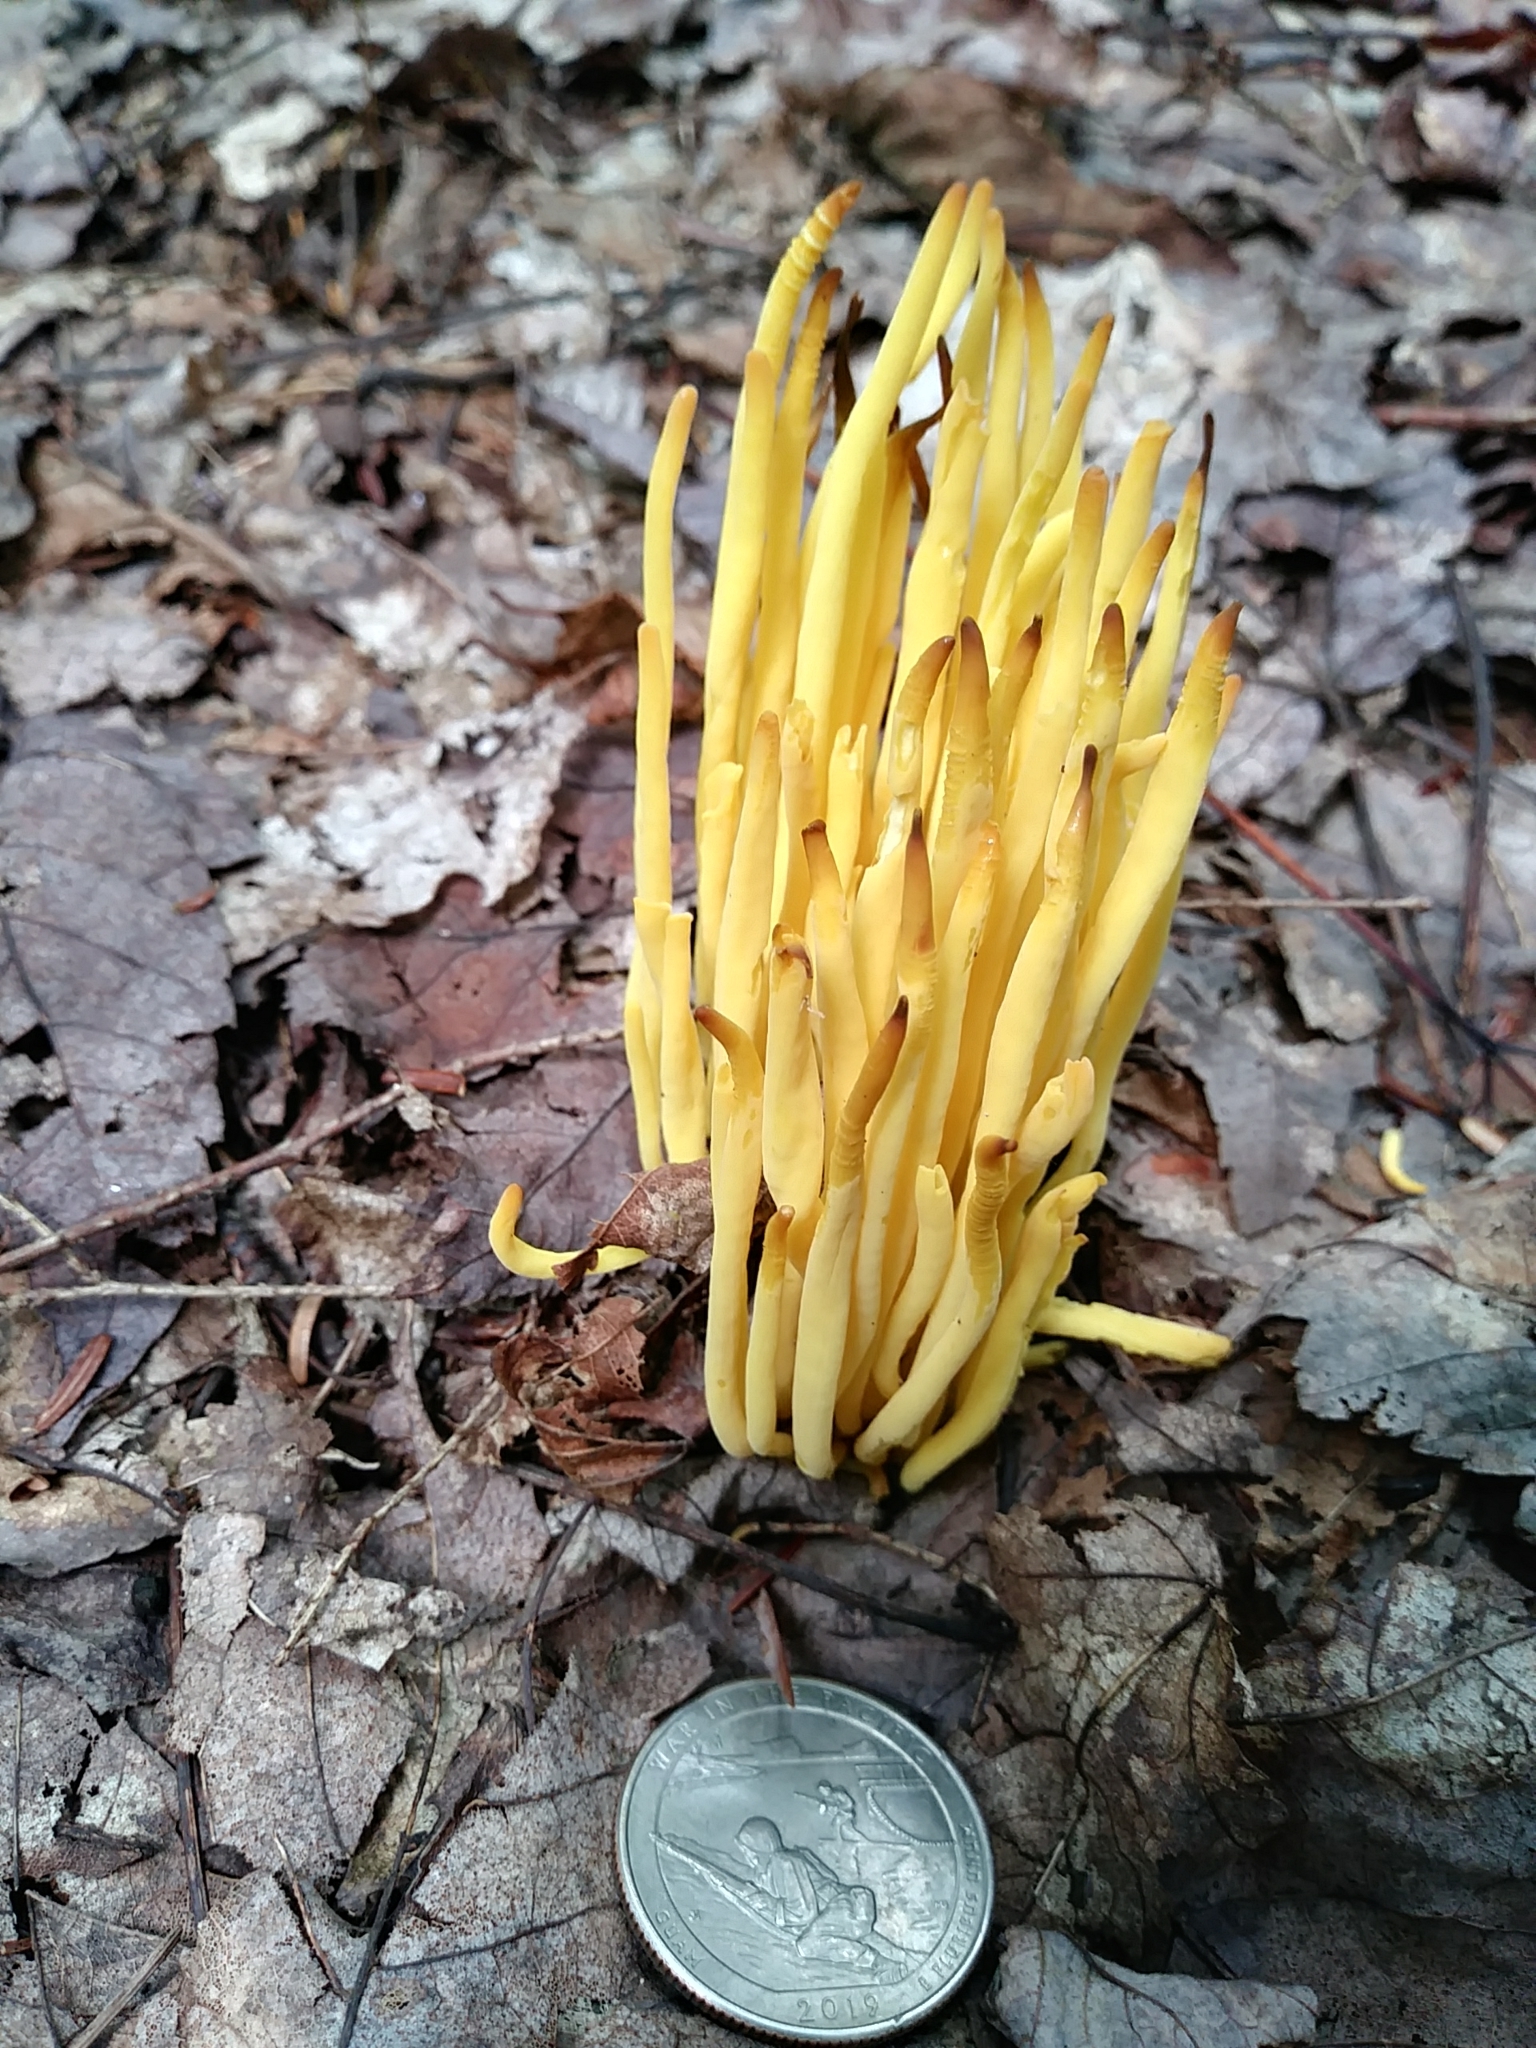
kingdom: Fungi
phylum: Basidiomycota
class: Agaricomycetes
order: Agaricales
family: Clavariaceae
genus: Clavulinopsis
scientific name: Clavulinopsis fusiformis
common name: Golden spindles
